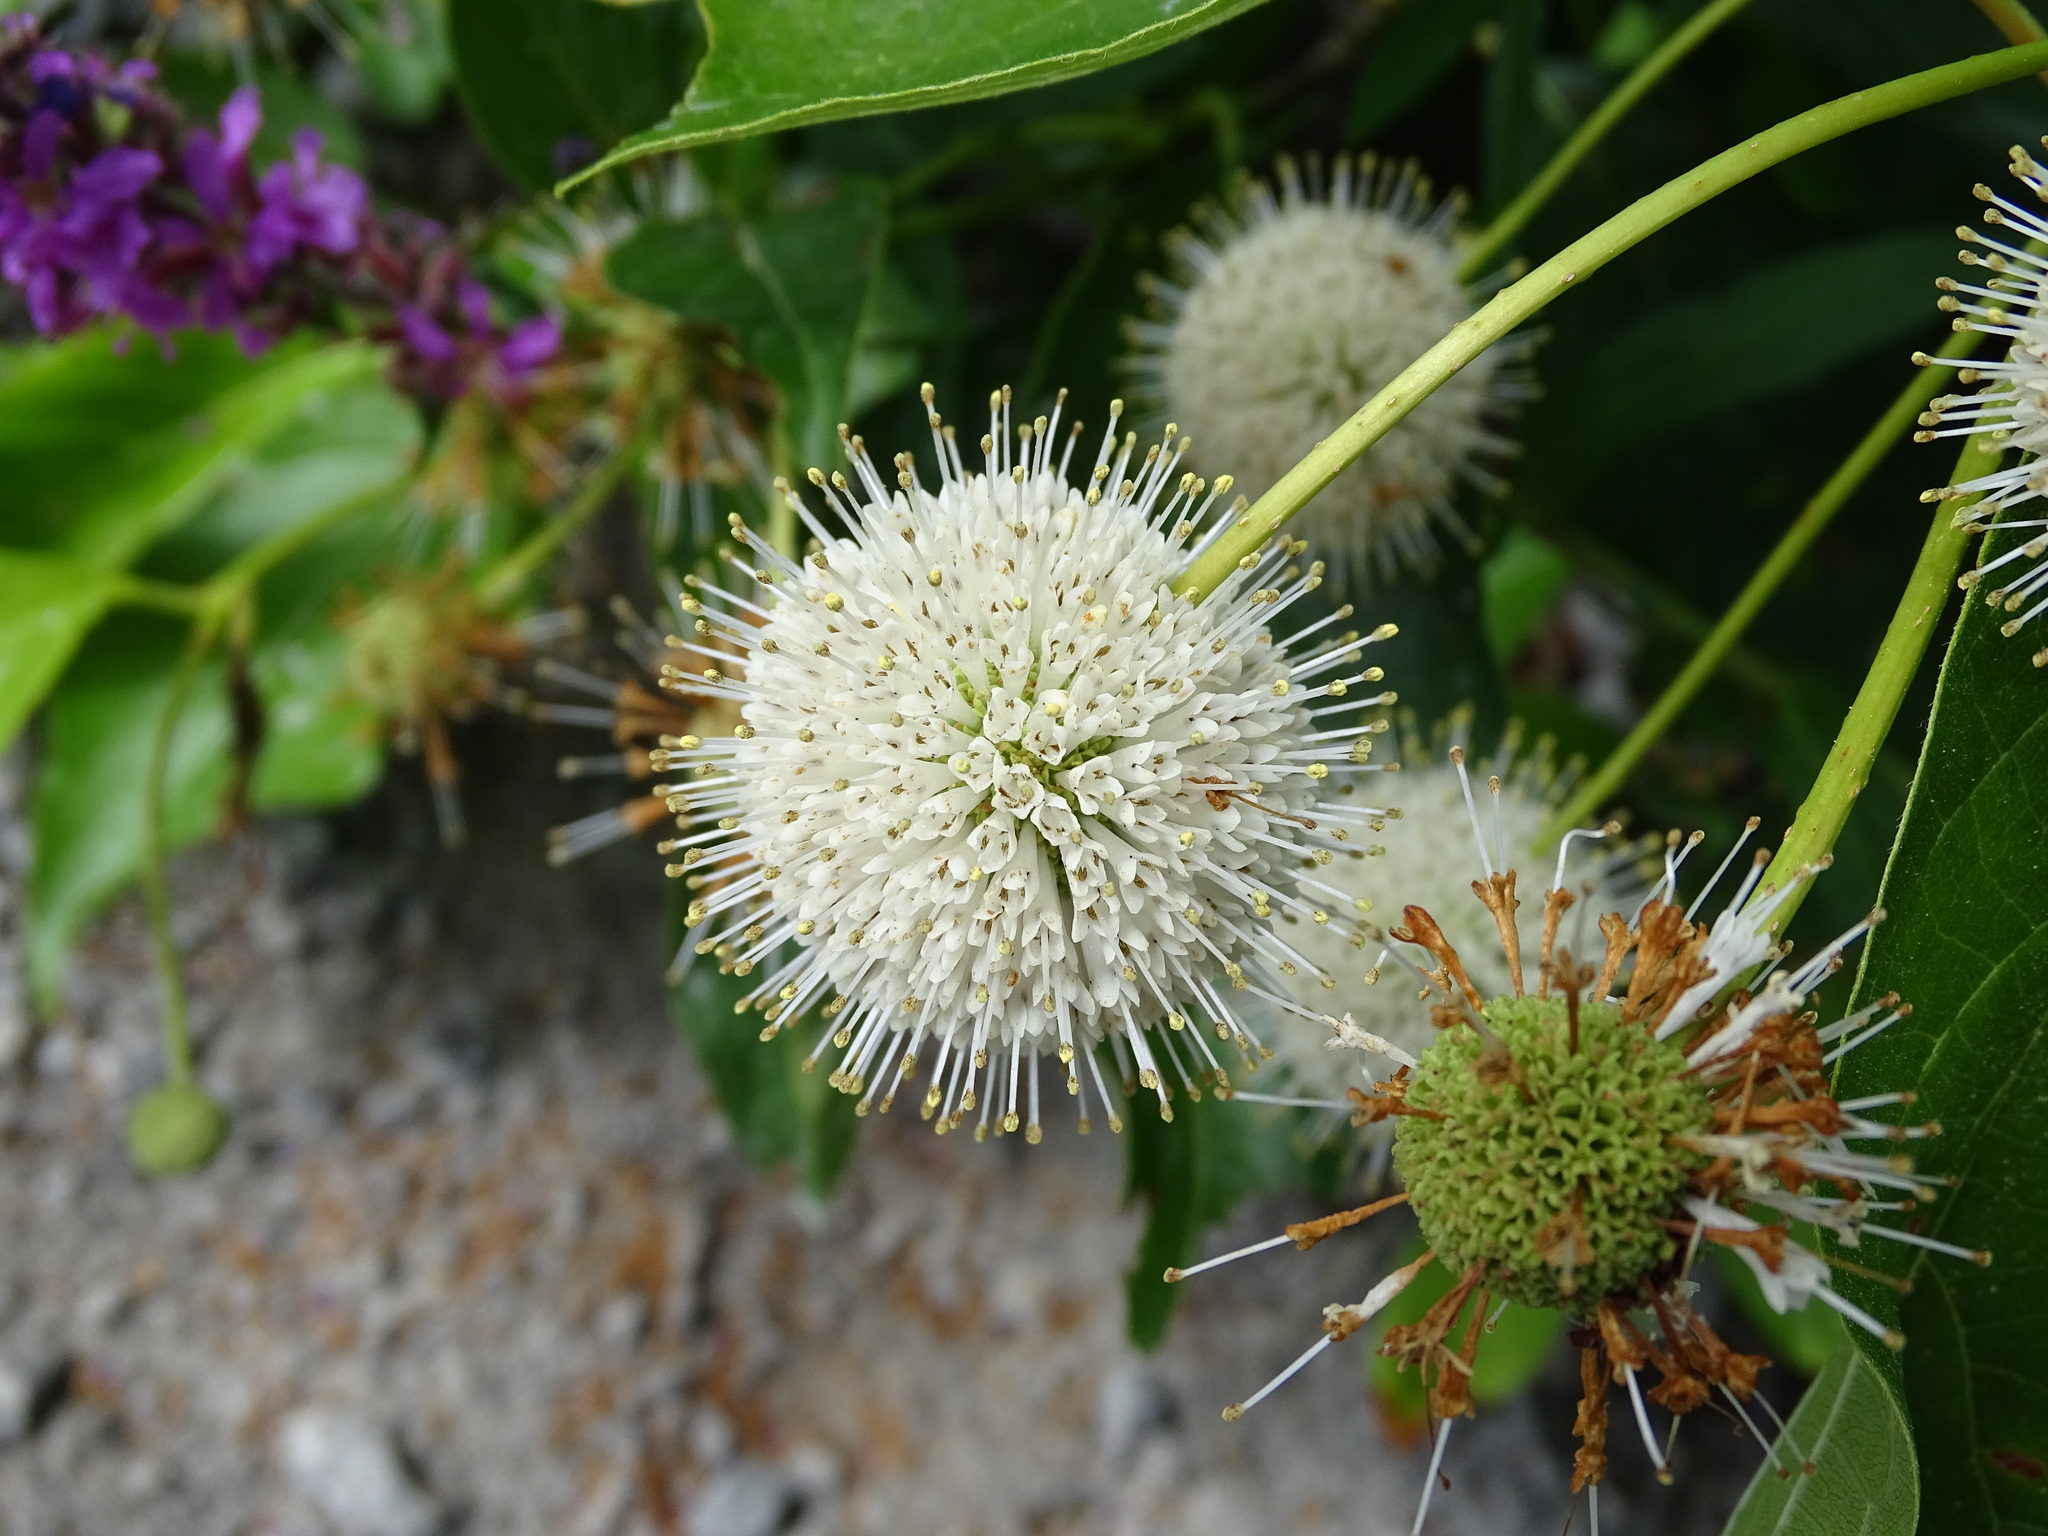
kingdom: Plantae
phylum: Tracheophyta
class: Magnoliopsida
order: Gentianales
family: Rubiaceae
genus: Cephalanthus
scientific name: Cephalanthus occidentalis
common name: Button-willow
